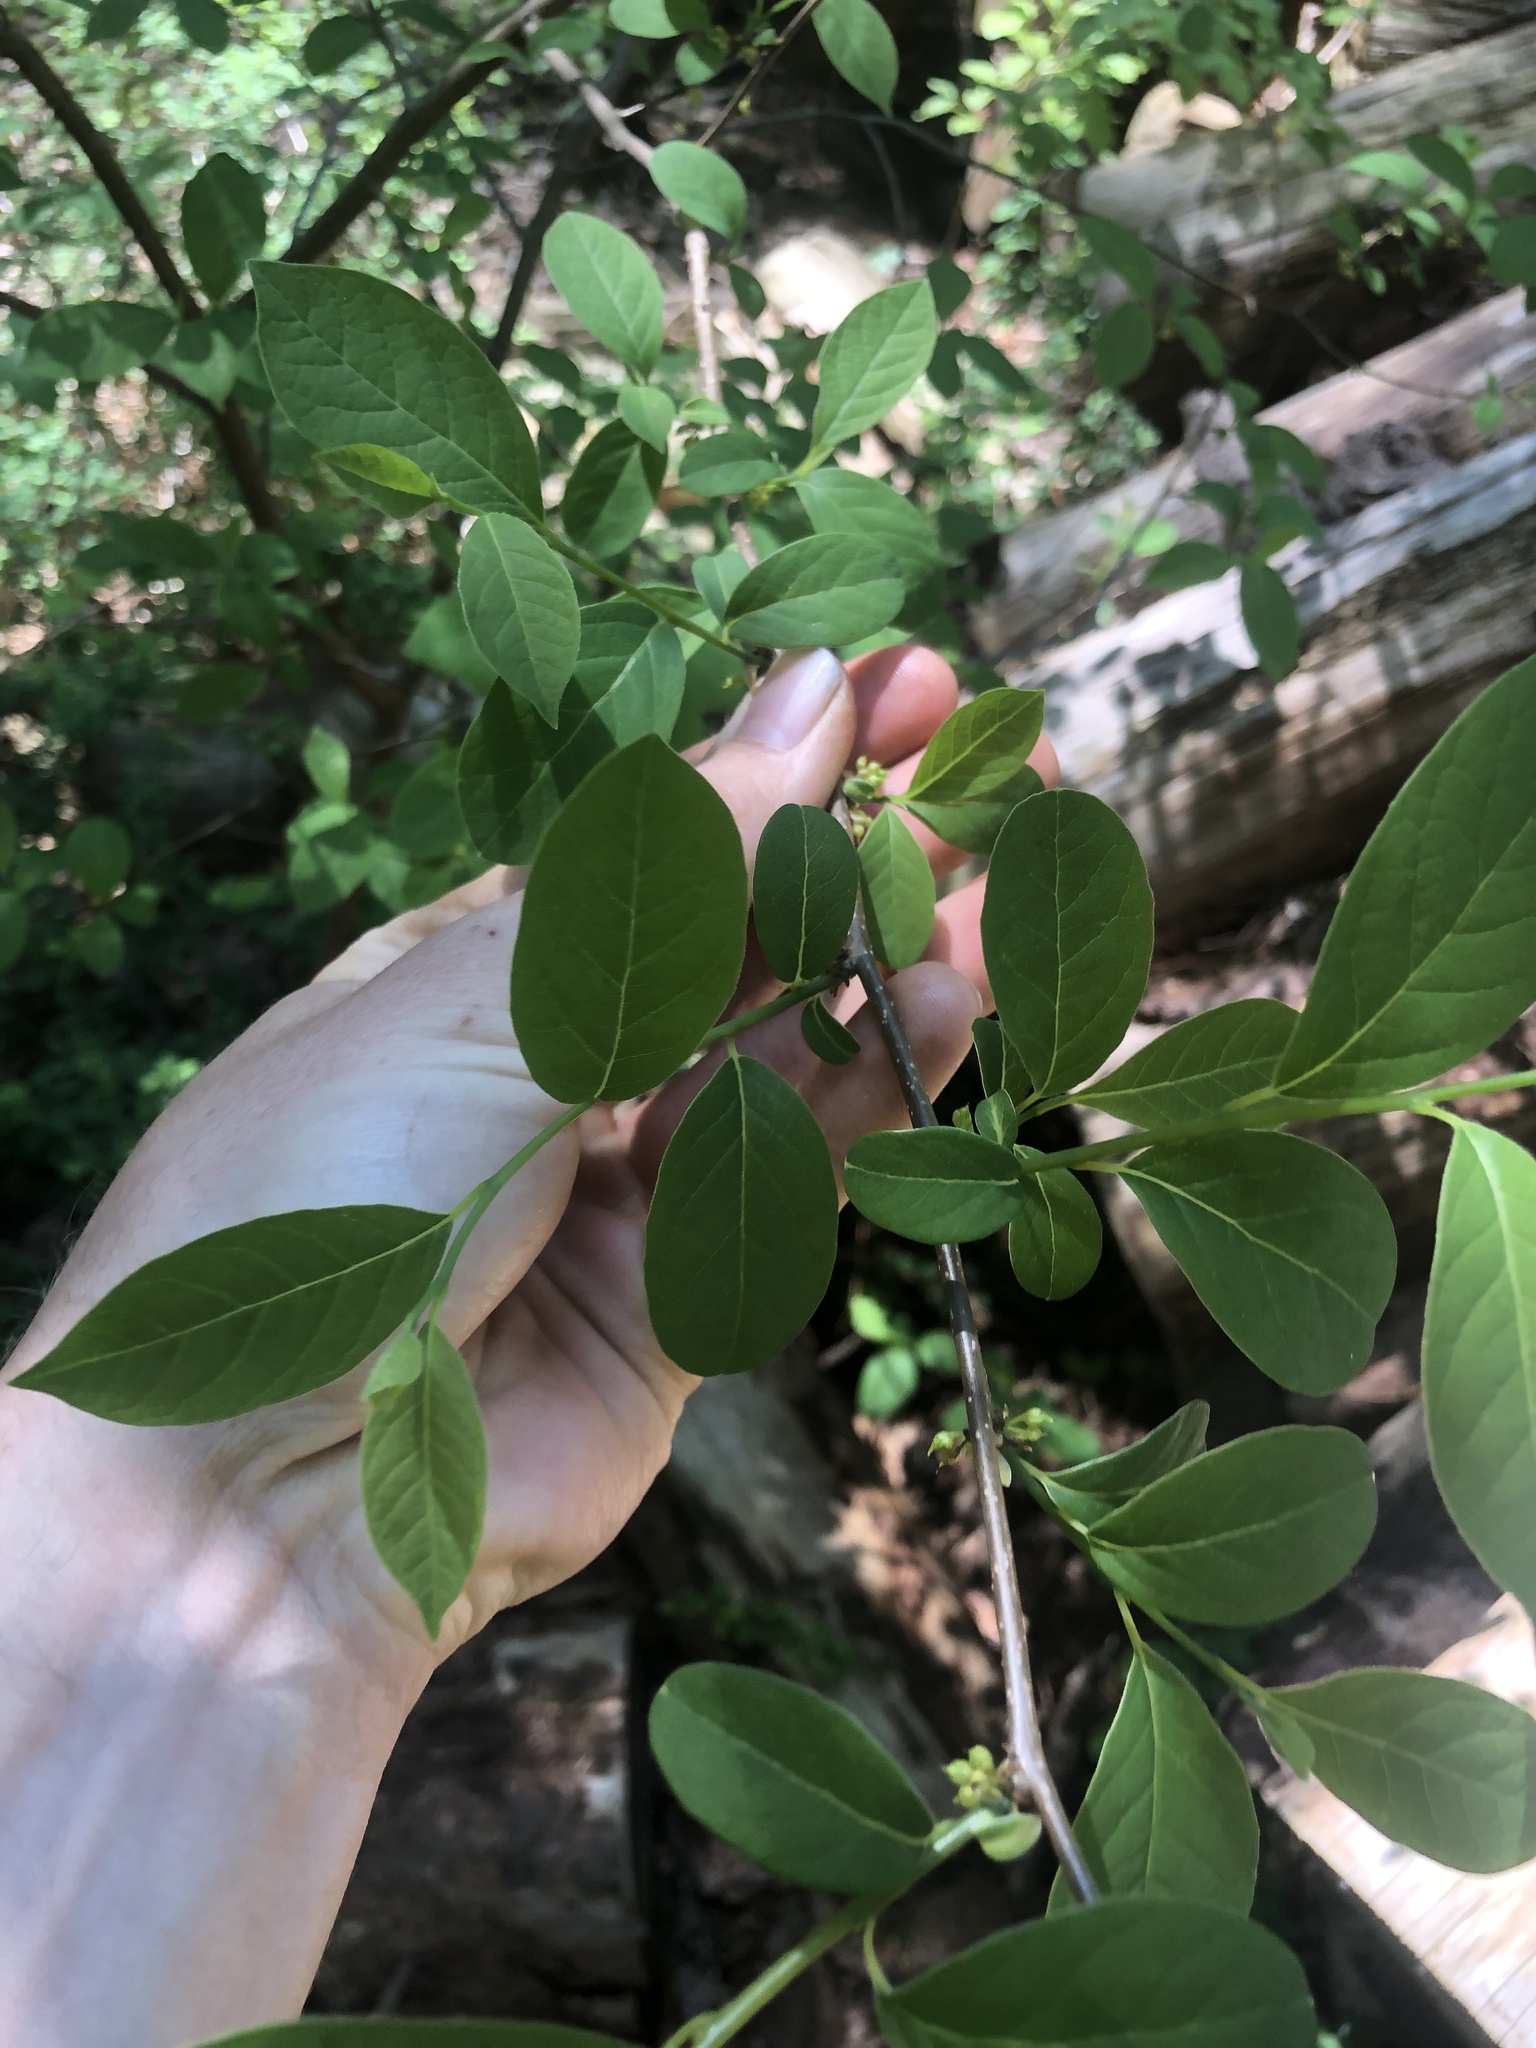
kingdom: Plantae
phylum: Tracheophyta
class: Magnoliopsida
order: Laurales
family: Lauraceae
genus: Lindera
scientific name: Lindera benzoin
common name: Spicebush
